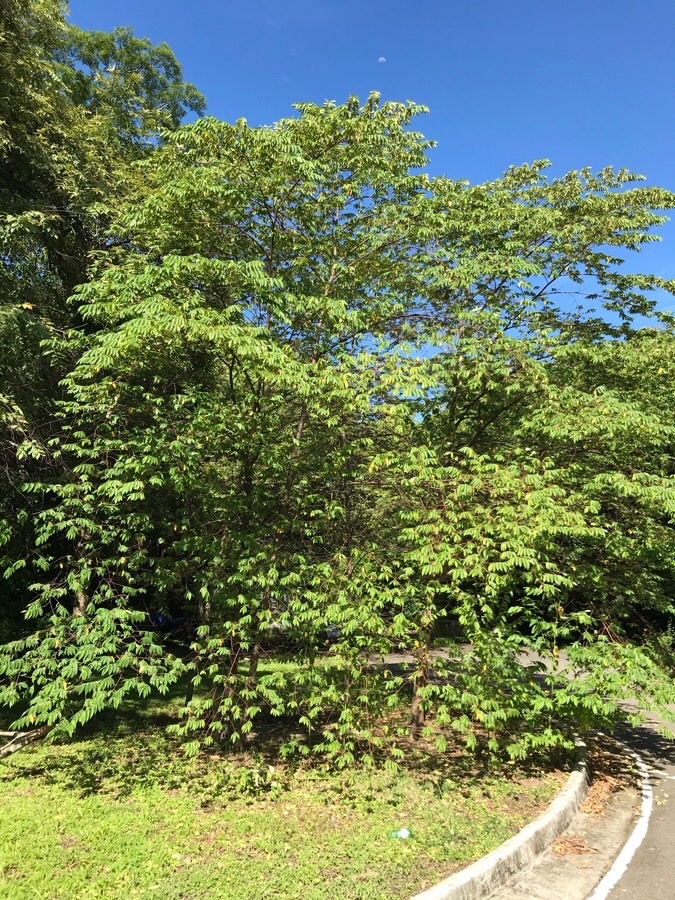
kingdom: Plantae
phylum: Tracheophyta
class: Magnoliopsida
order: Malvales
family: Muntingiaceae
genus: Muntingia
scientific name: Muntingia calabura
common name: Strawberrytree
